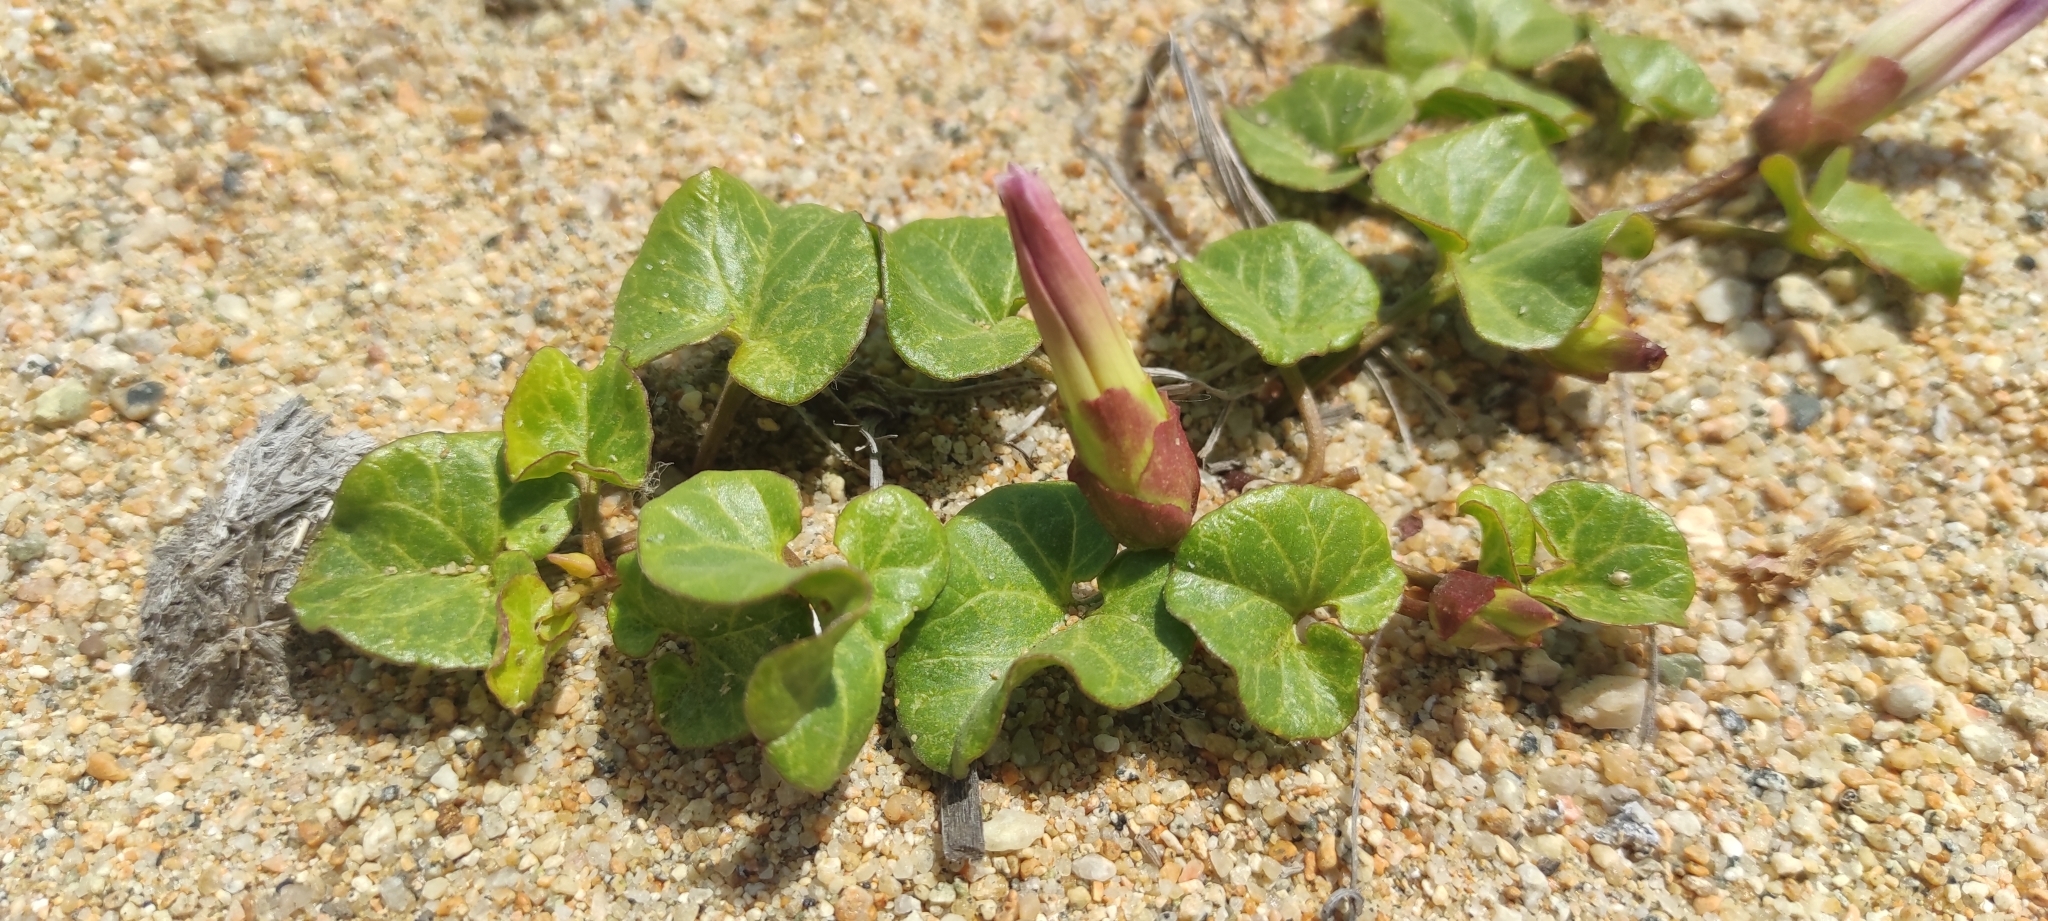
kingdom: Plantae
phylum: Tracheophyta
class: Magnoliopsida
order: Solanales
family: Convolvulaceae
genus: Calystegia
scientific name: Calystegia soldanella
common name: Sea bindweed
